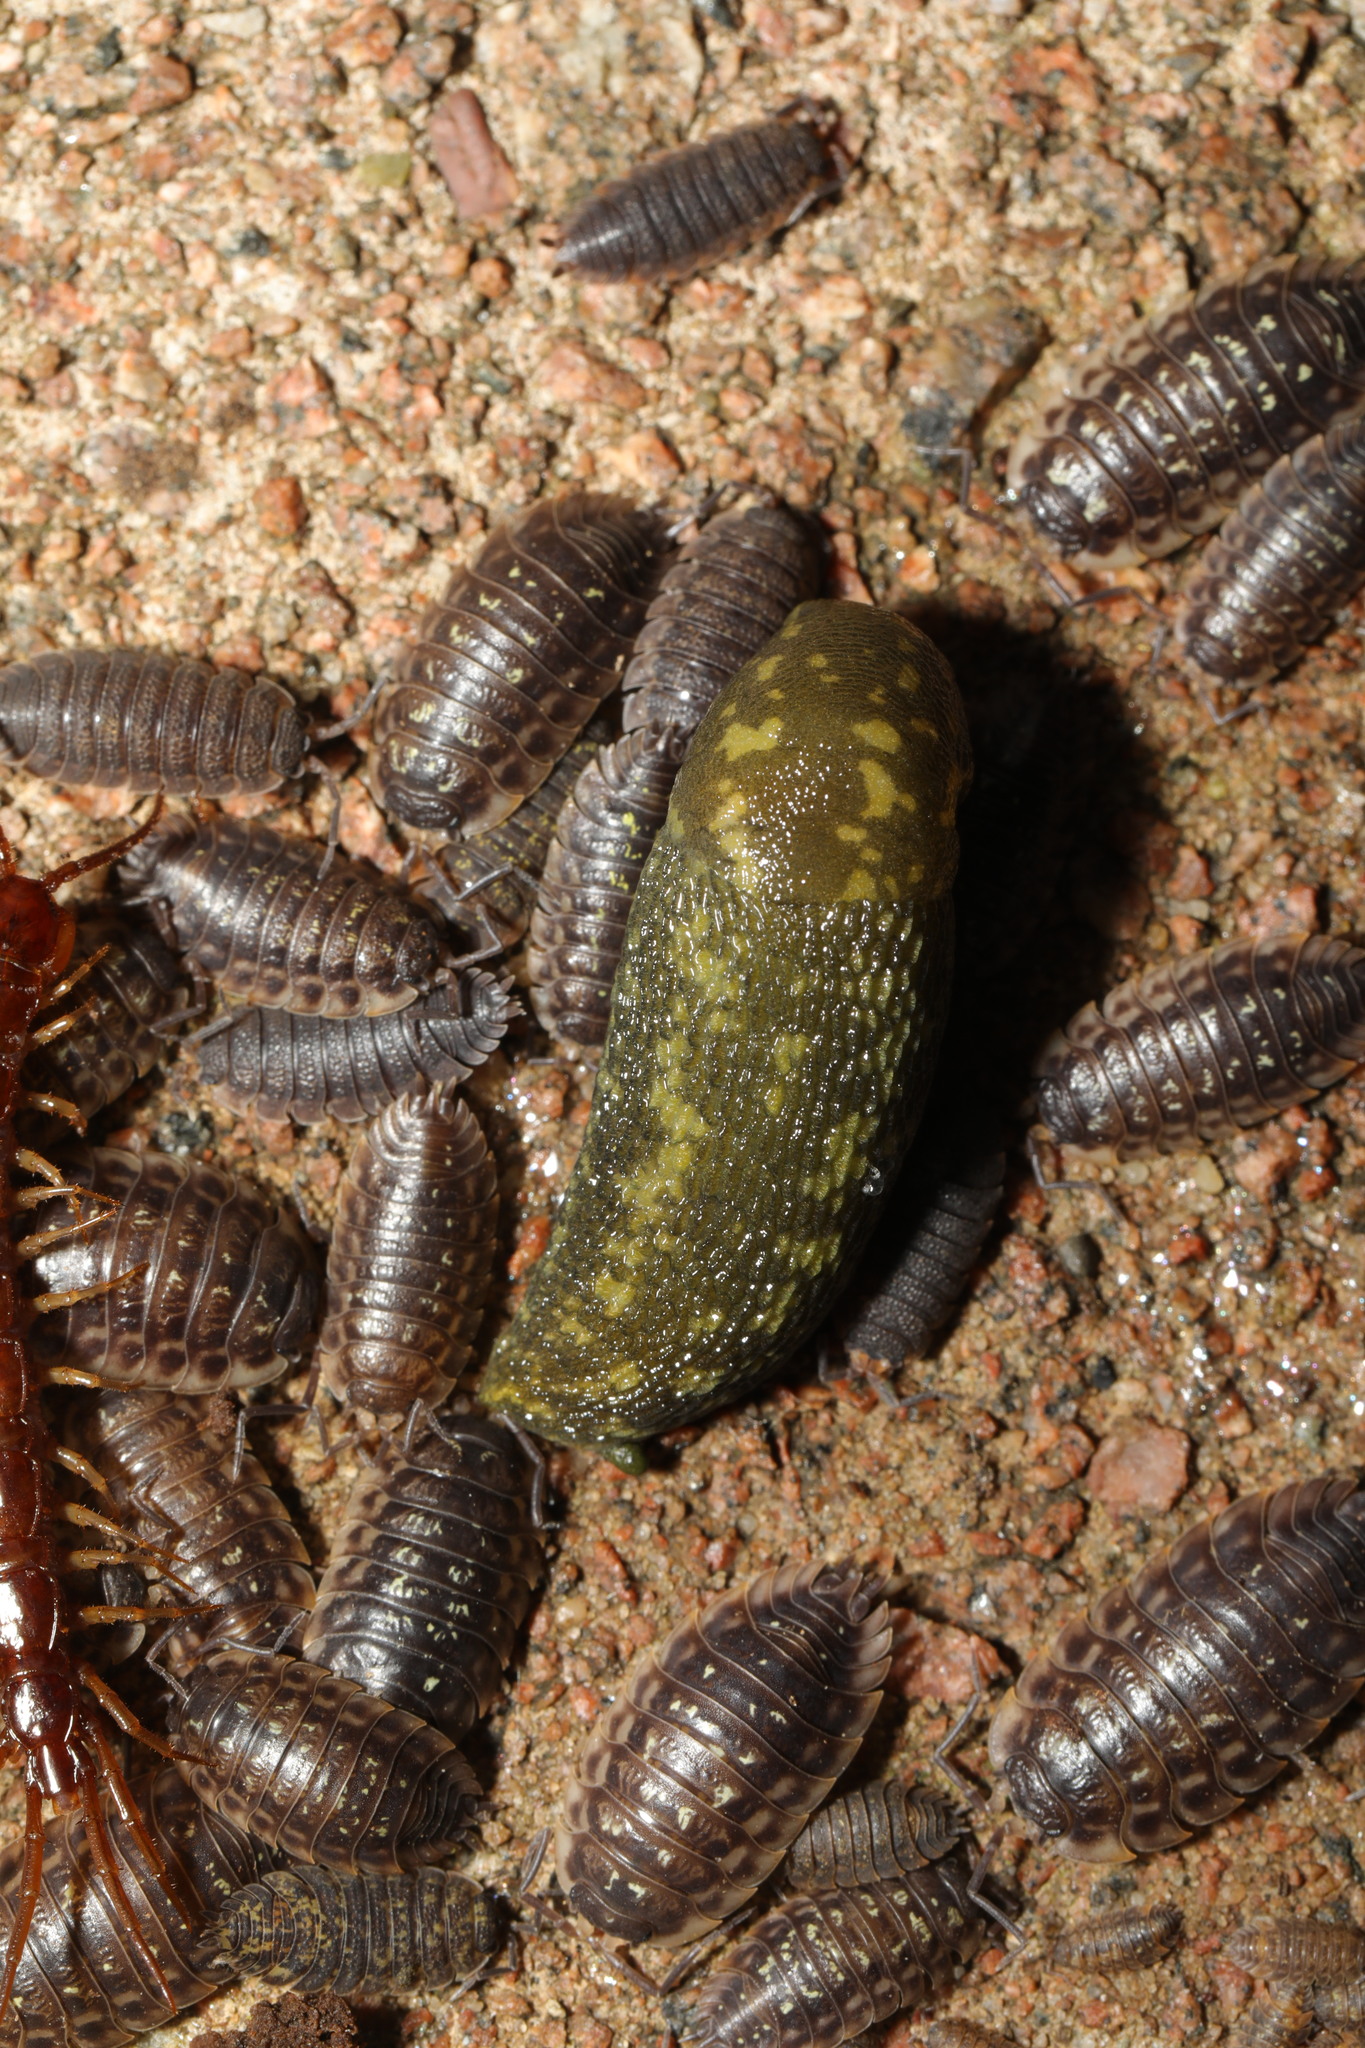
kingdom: Animalia
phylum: Mollusca
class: Gastropoda
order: Stylommatophora
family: Limacidae
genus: Limacus
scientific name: Limacus maculatus
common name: Irish yellow slug
